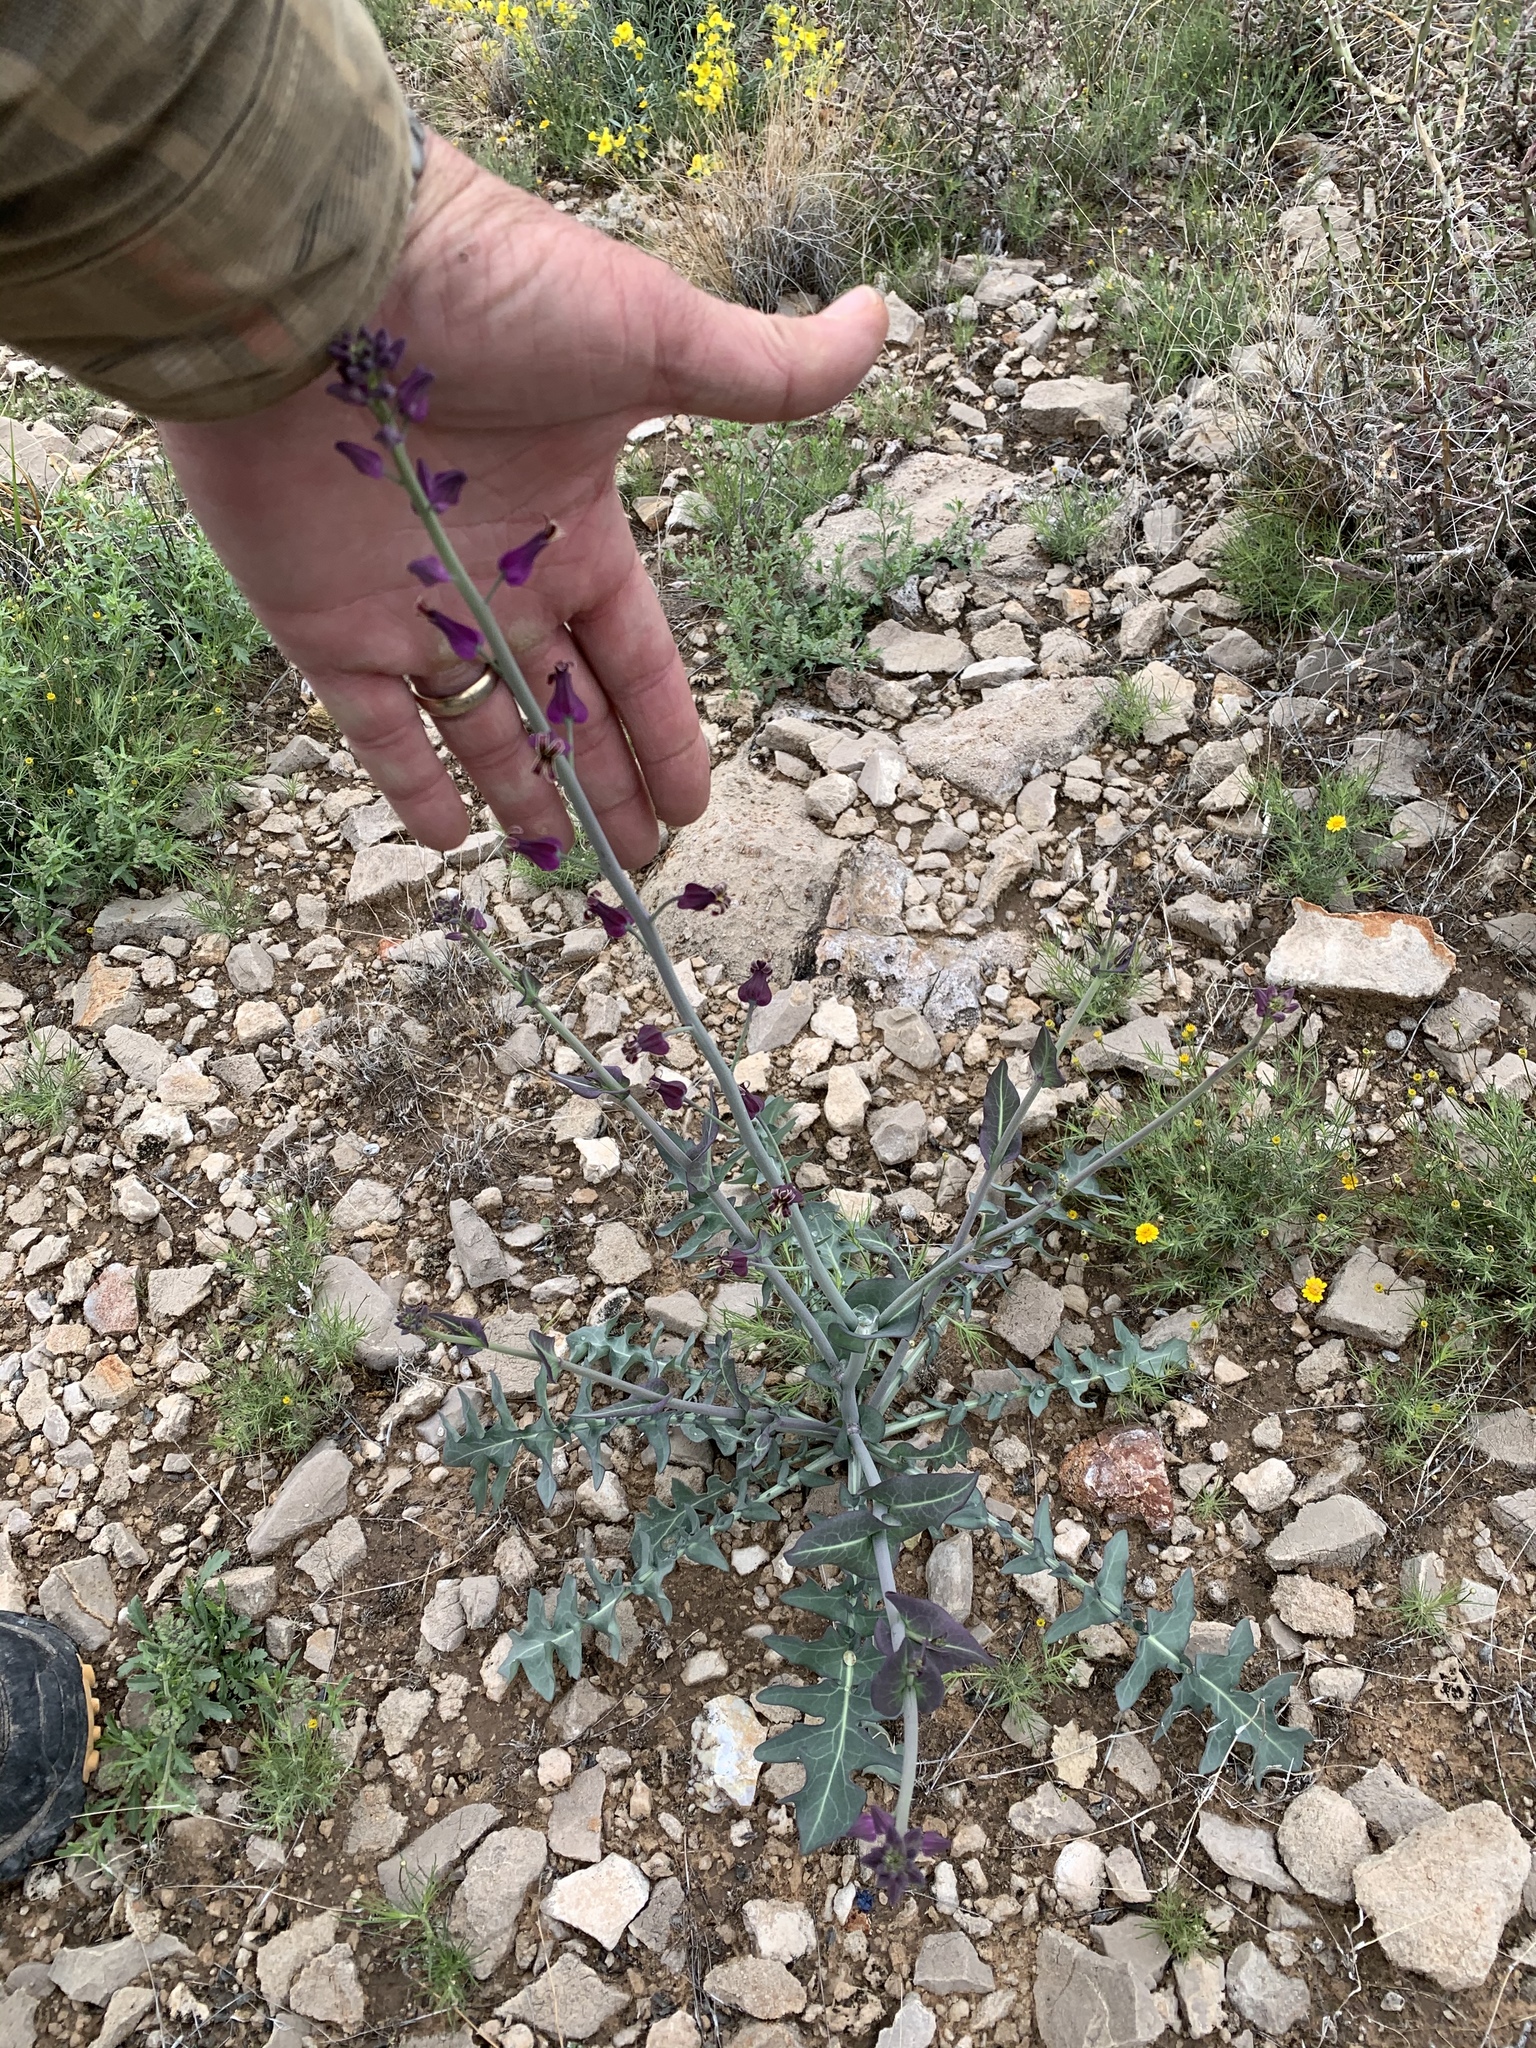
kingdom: Plantae
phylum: Tracheophyta
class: Magnoliopsida
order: Brassicales
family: Brassicaceae
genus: Streptanthus
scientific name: Streptanthus carinatus
